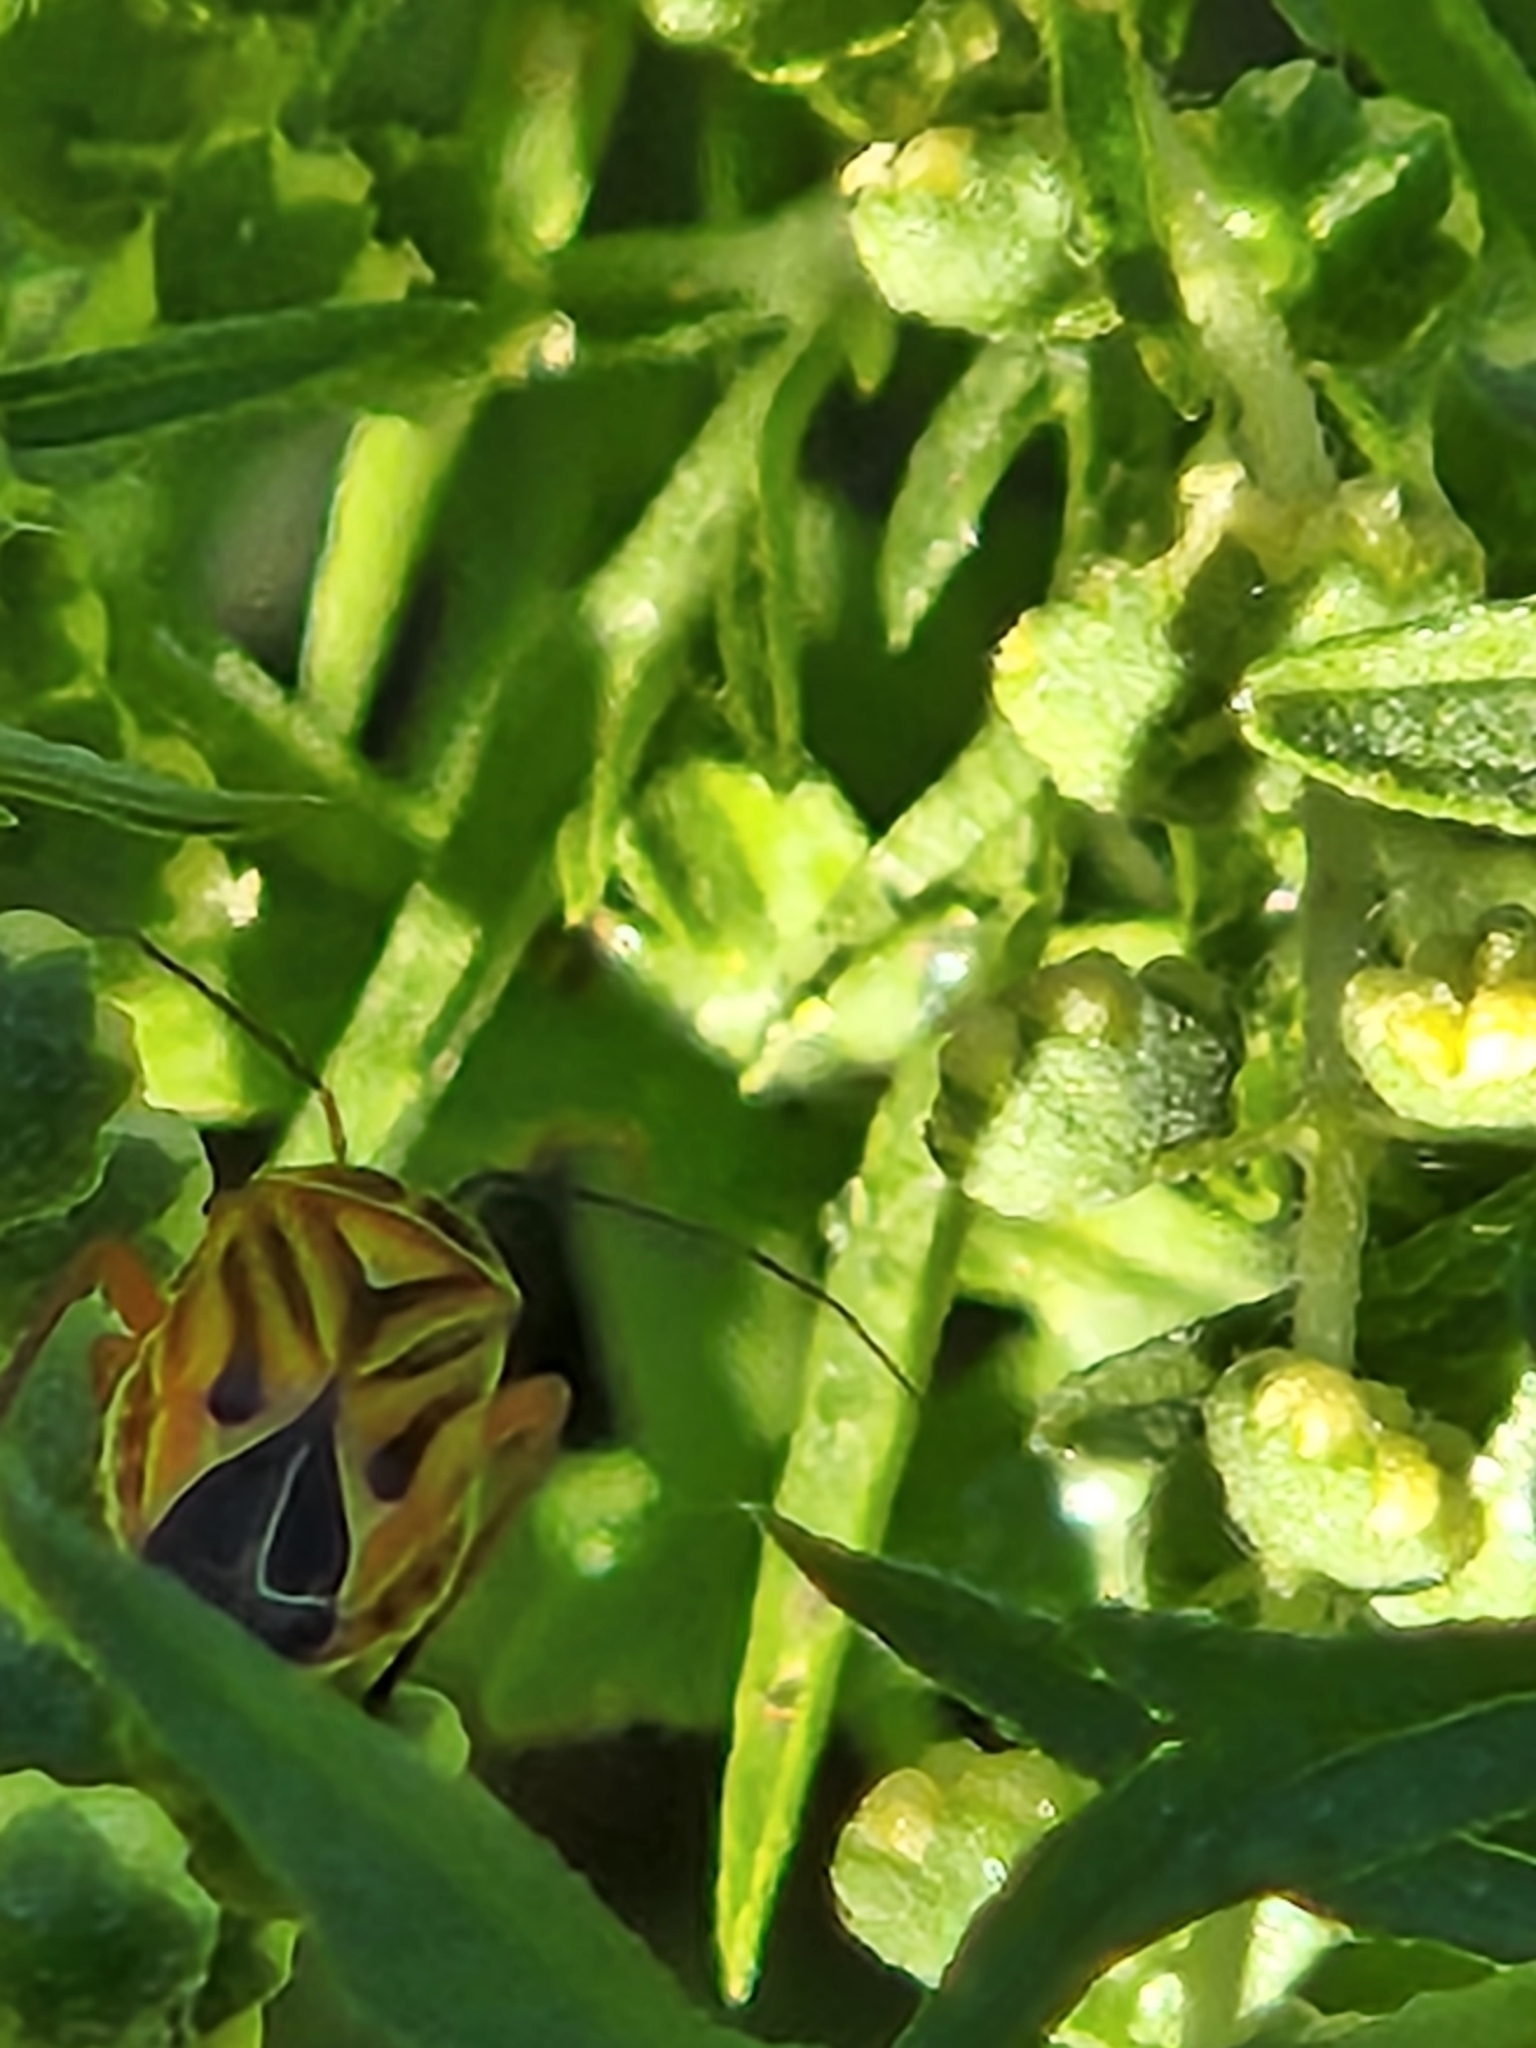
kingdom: Animalia
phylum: Arthropoda
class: Insecta
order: Hemiptera
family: Miridae
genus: Calocoris
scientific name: Calocoris barberi
